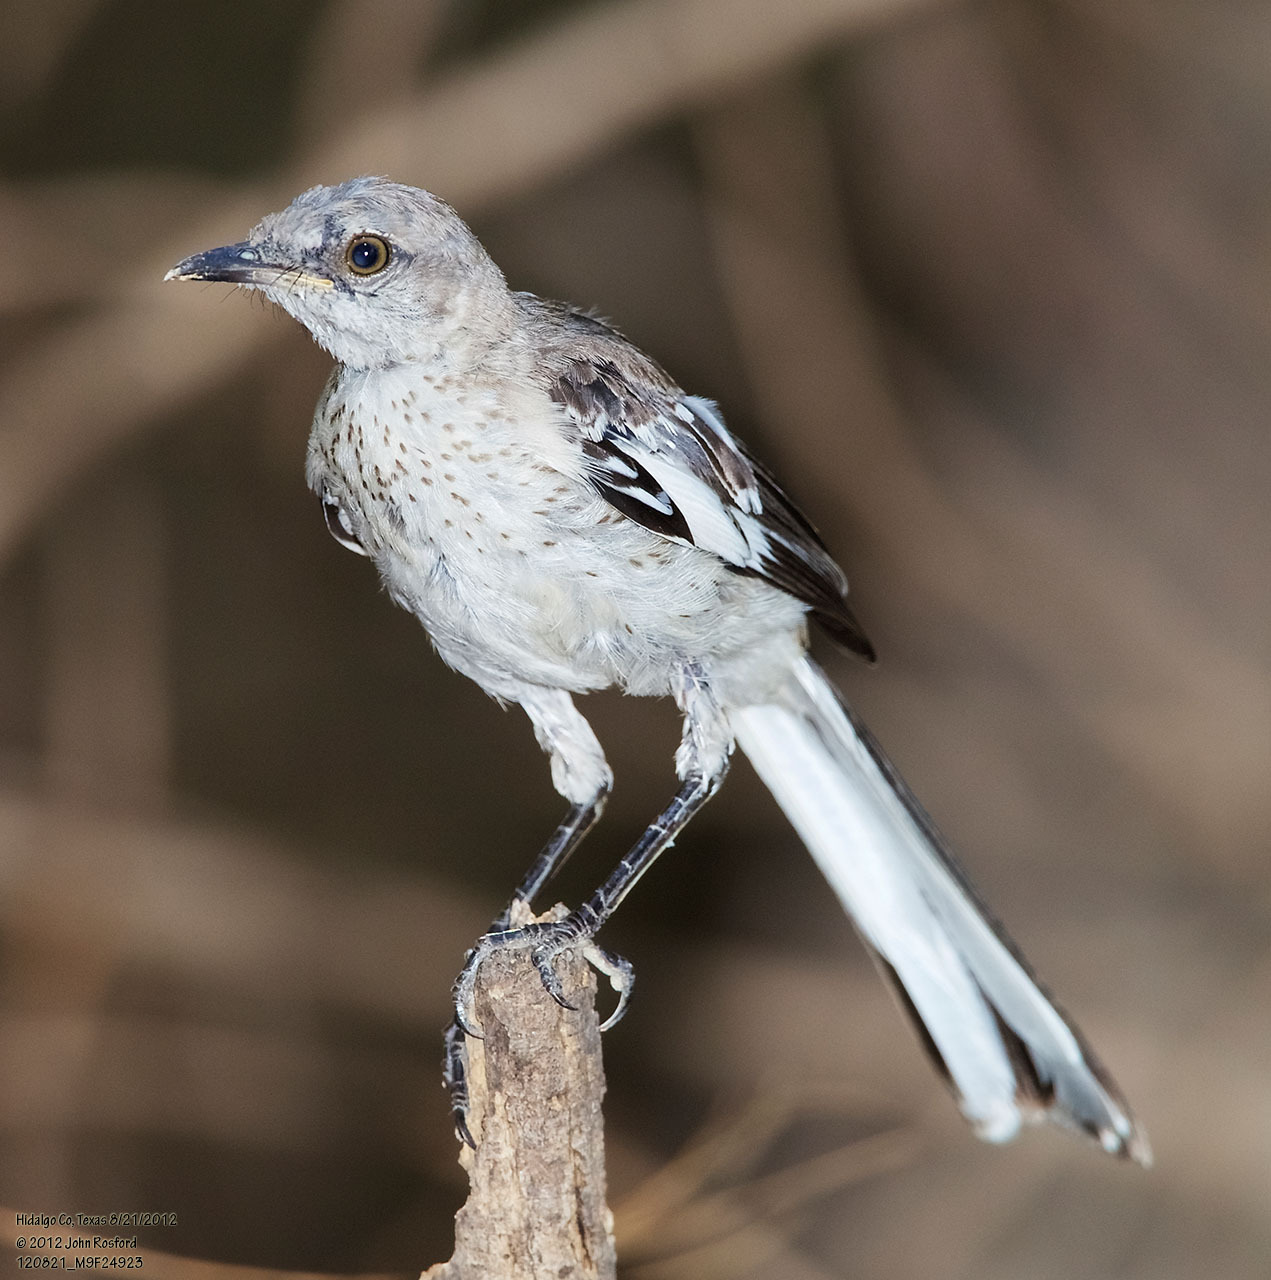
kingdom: Animalia
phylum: Chordata
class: Aves
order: Passeriformes
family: Mimidae
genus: Mimus
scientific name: Mimus polyglottos
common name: Northern mockingbird
